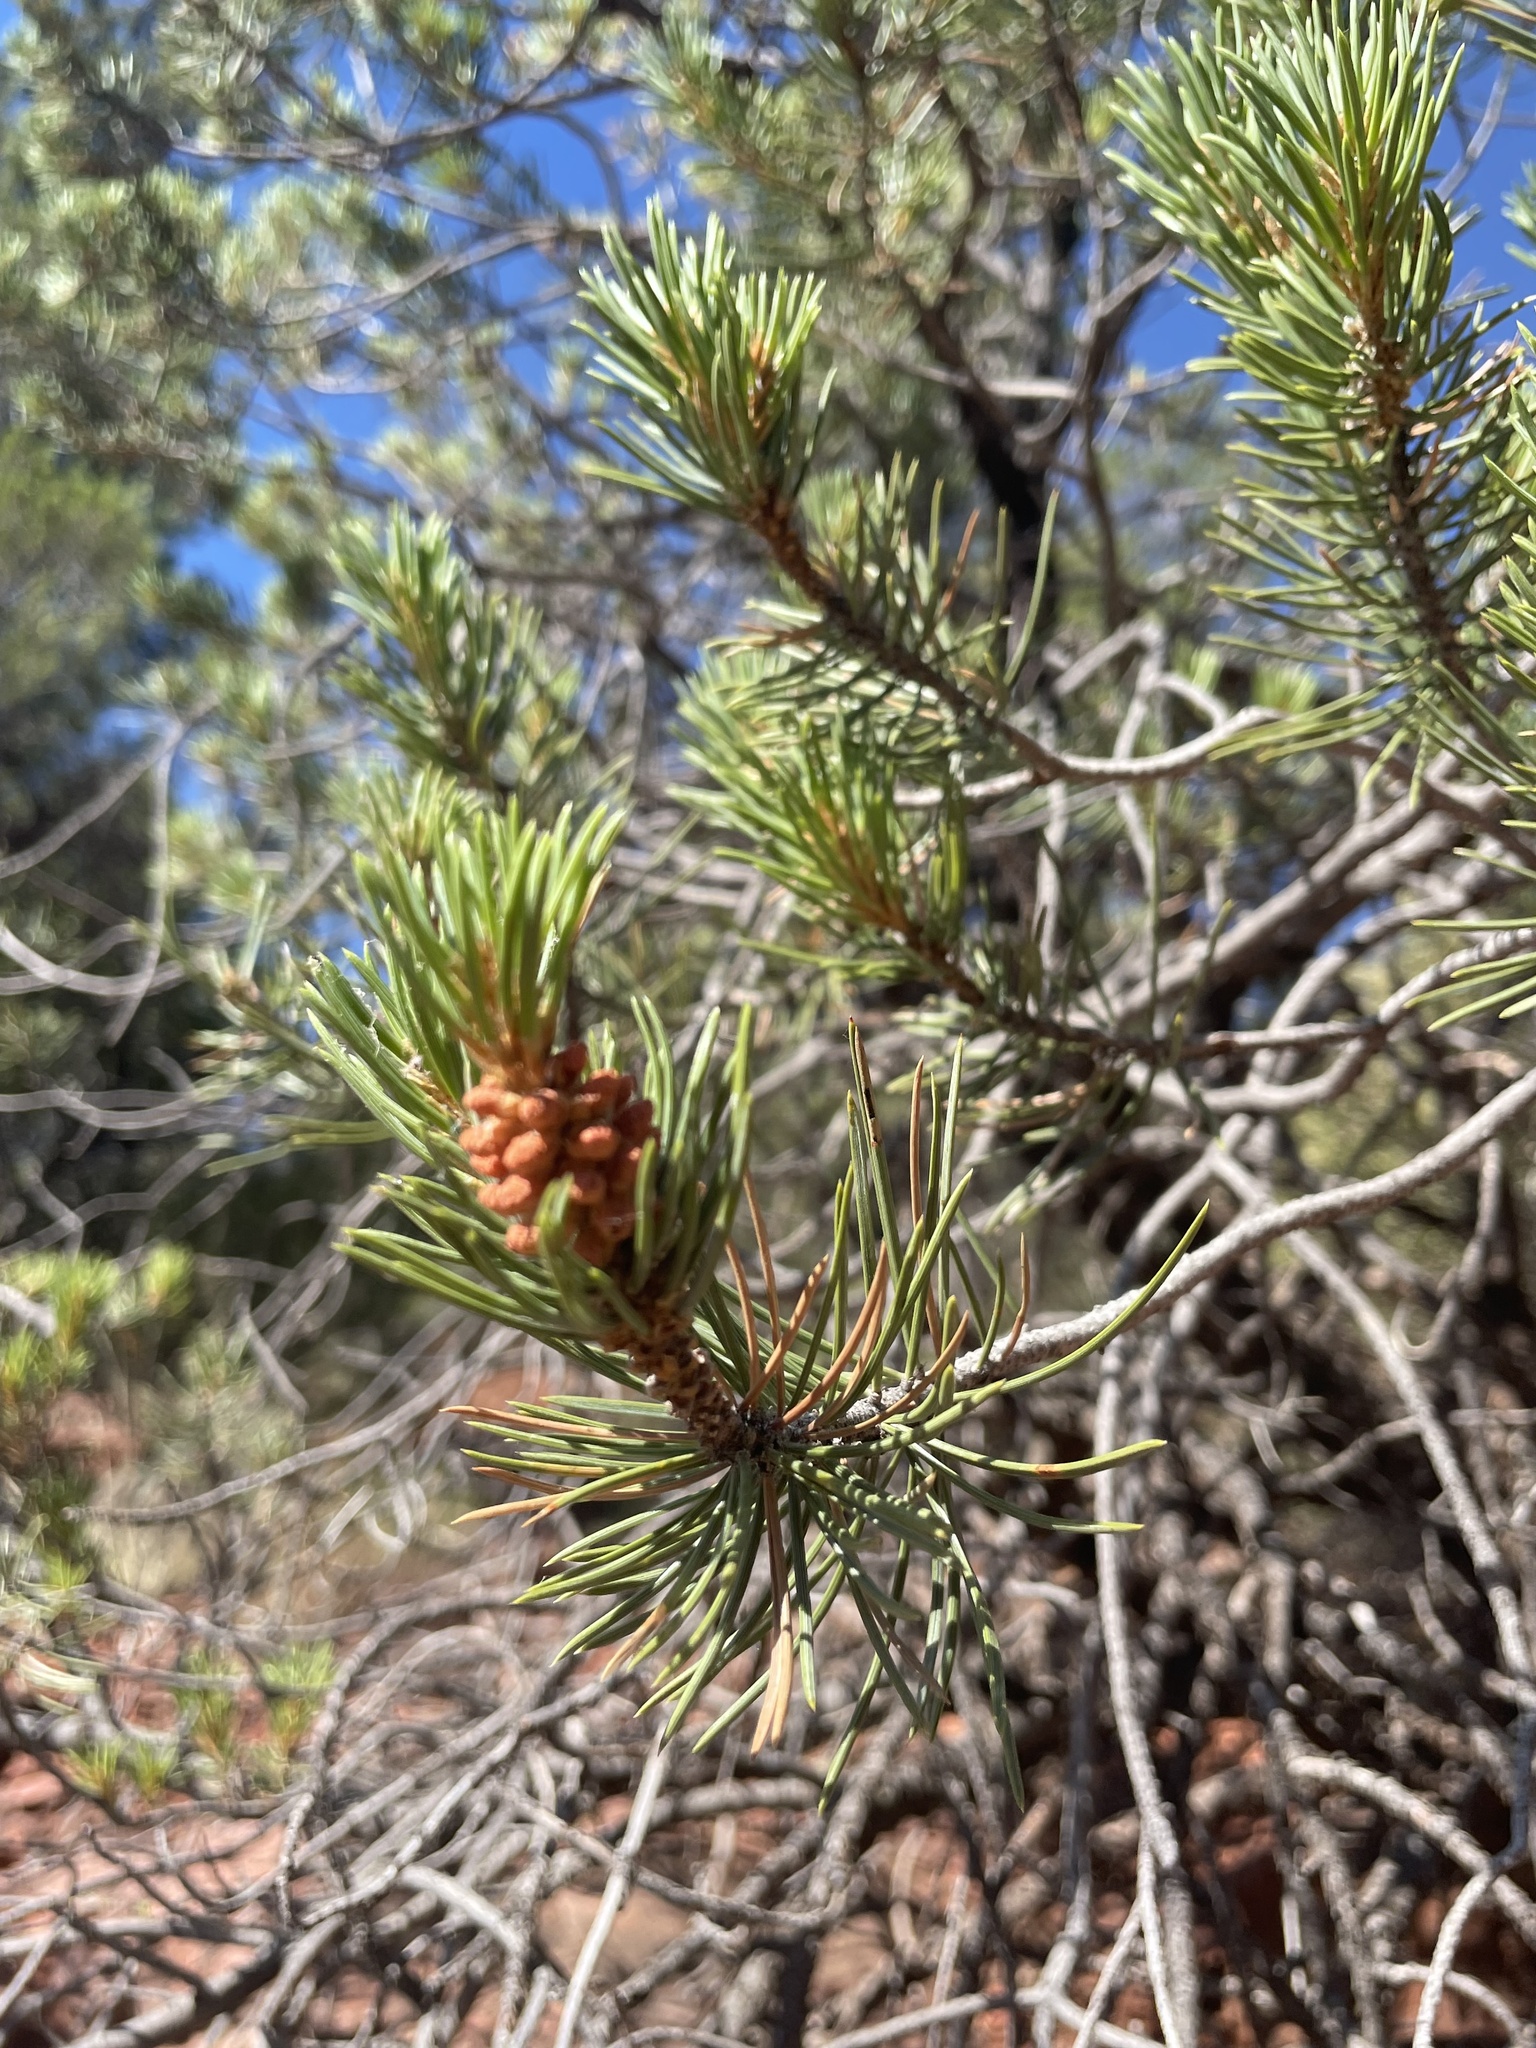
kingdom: Plantae
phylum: Tracheophyta
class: Pinopsida
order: Pinales
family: Pinaceae
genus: Pinus
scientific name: Pinus edulis
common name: Colorado pinyon
